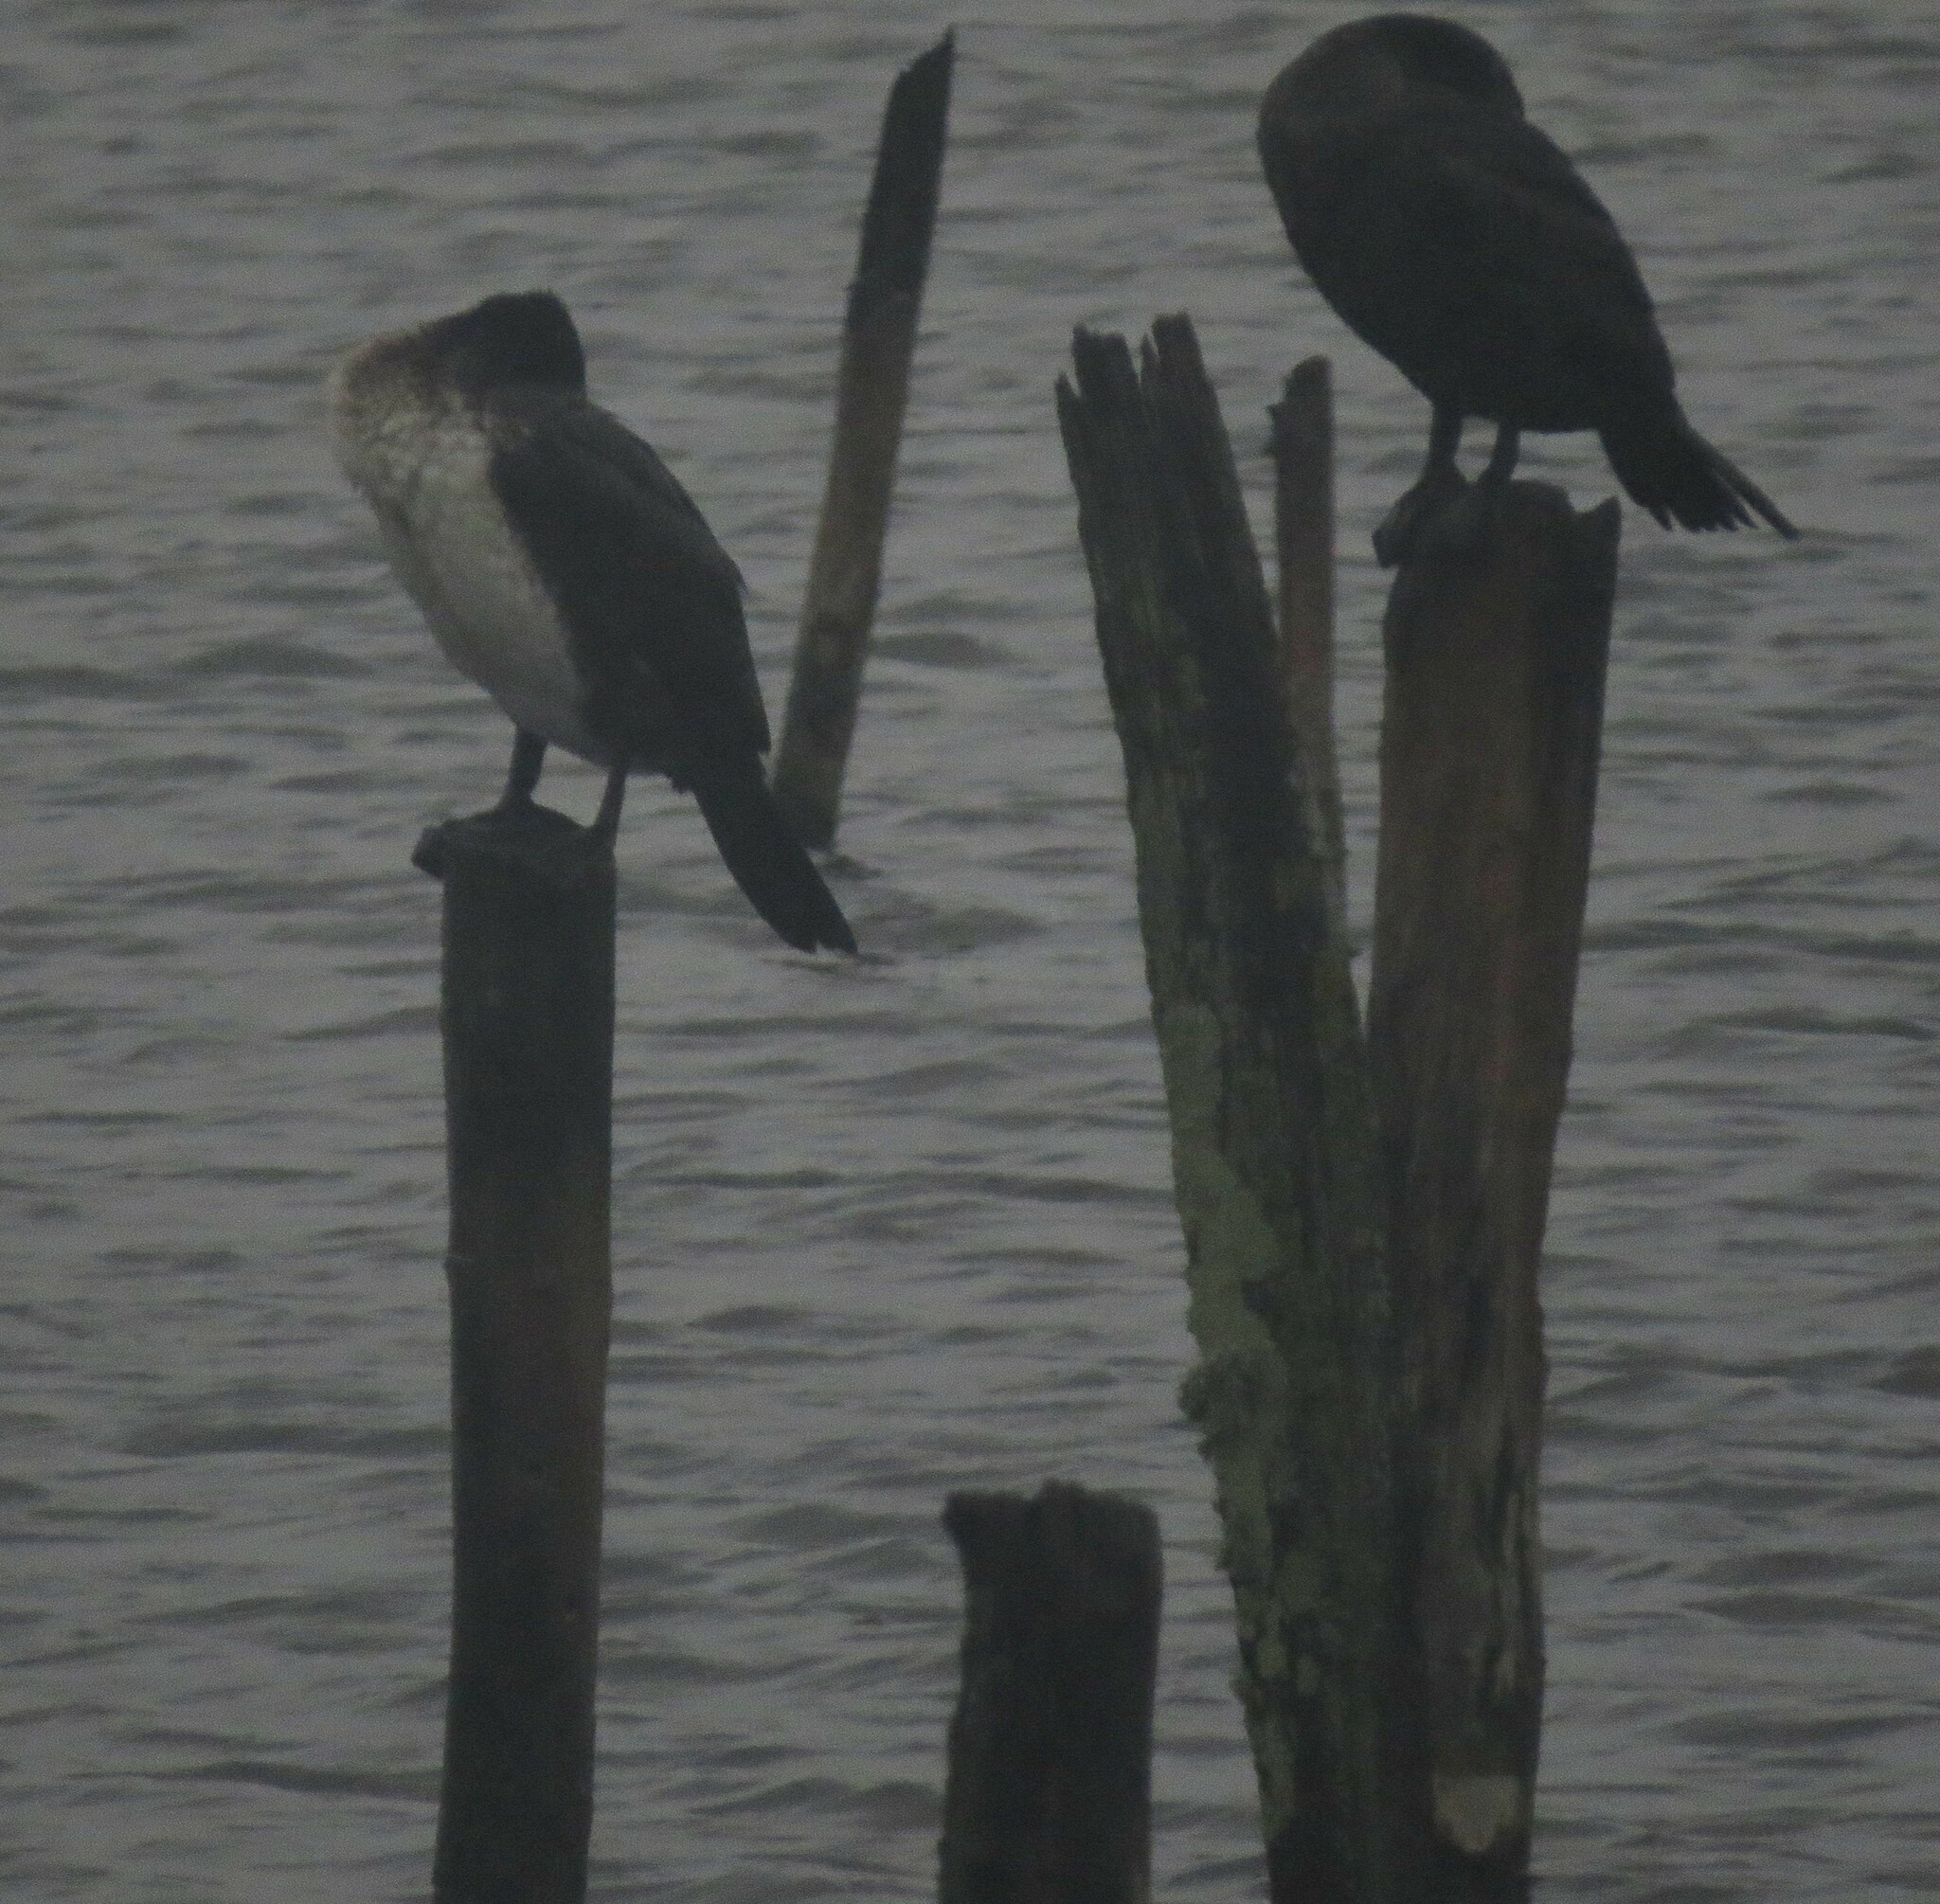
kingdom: Animalia
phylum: Chordata
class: Aves
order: Suliformes
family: Phalacrocoracidae
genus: Phalacrocorax
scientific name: Phalacrocorax carbo
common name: Great cormorant
